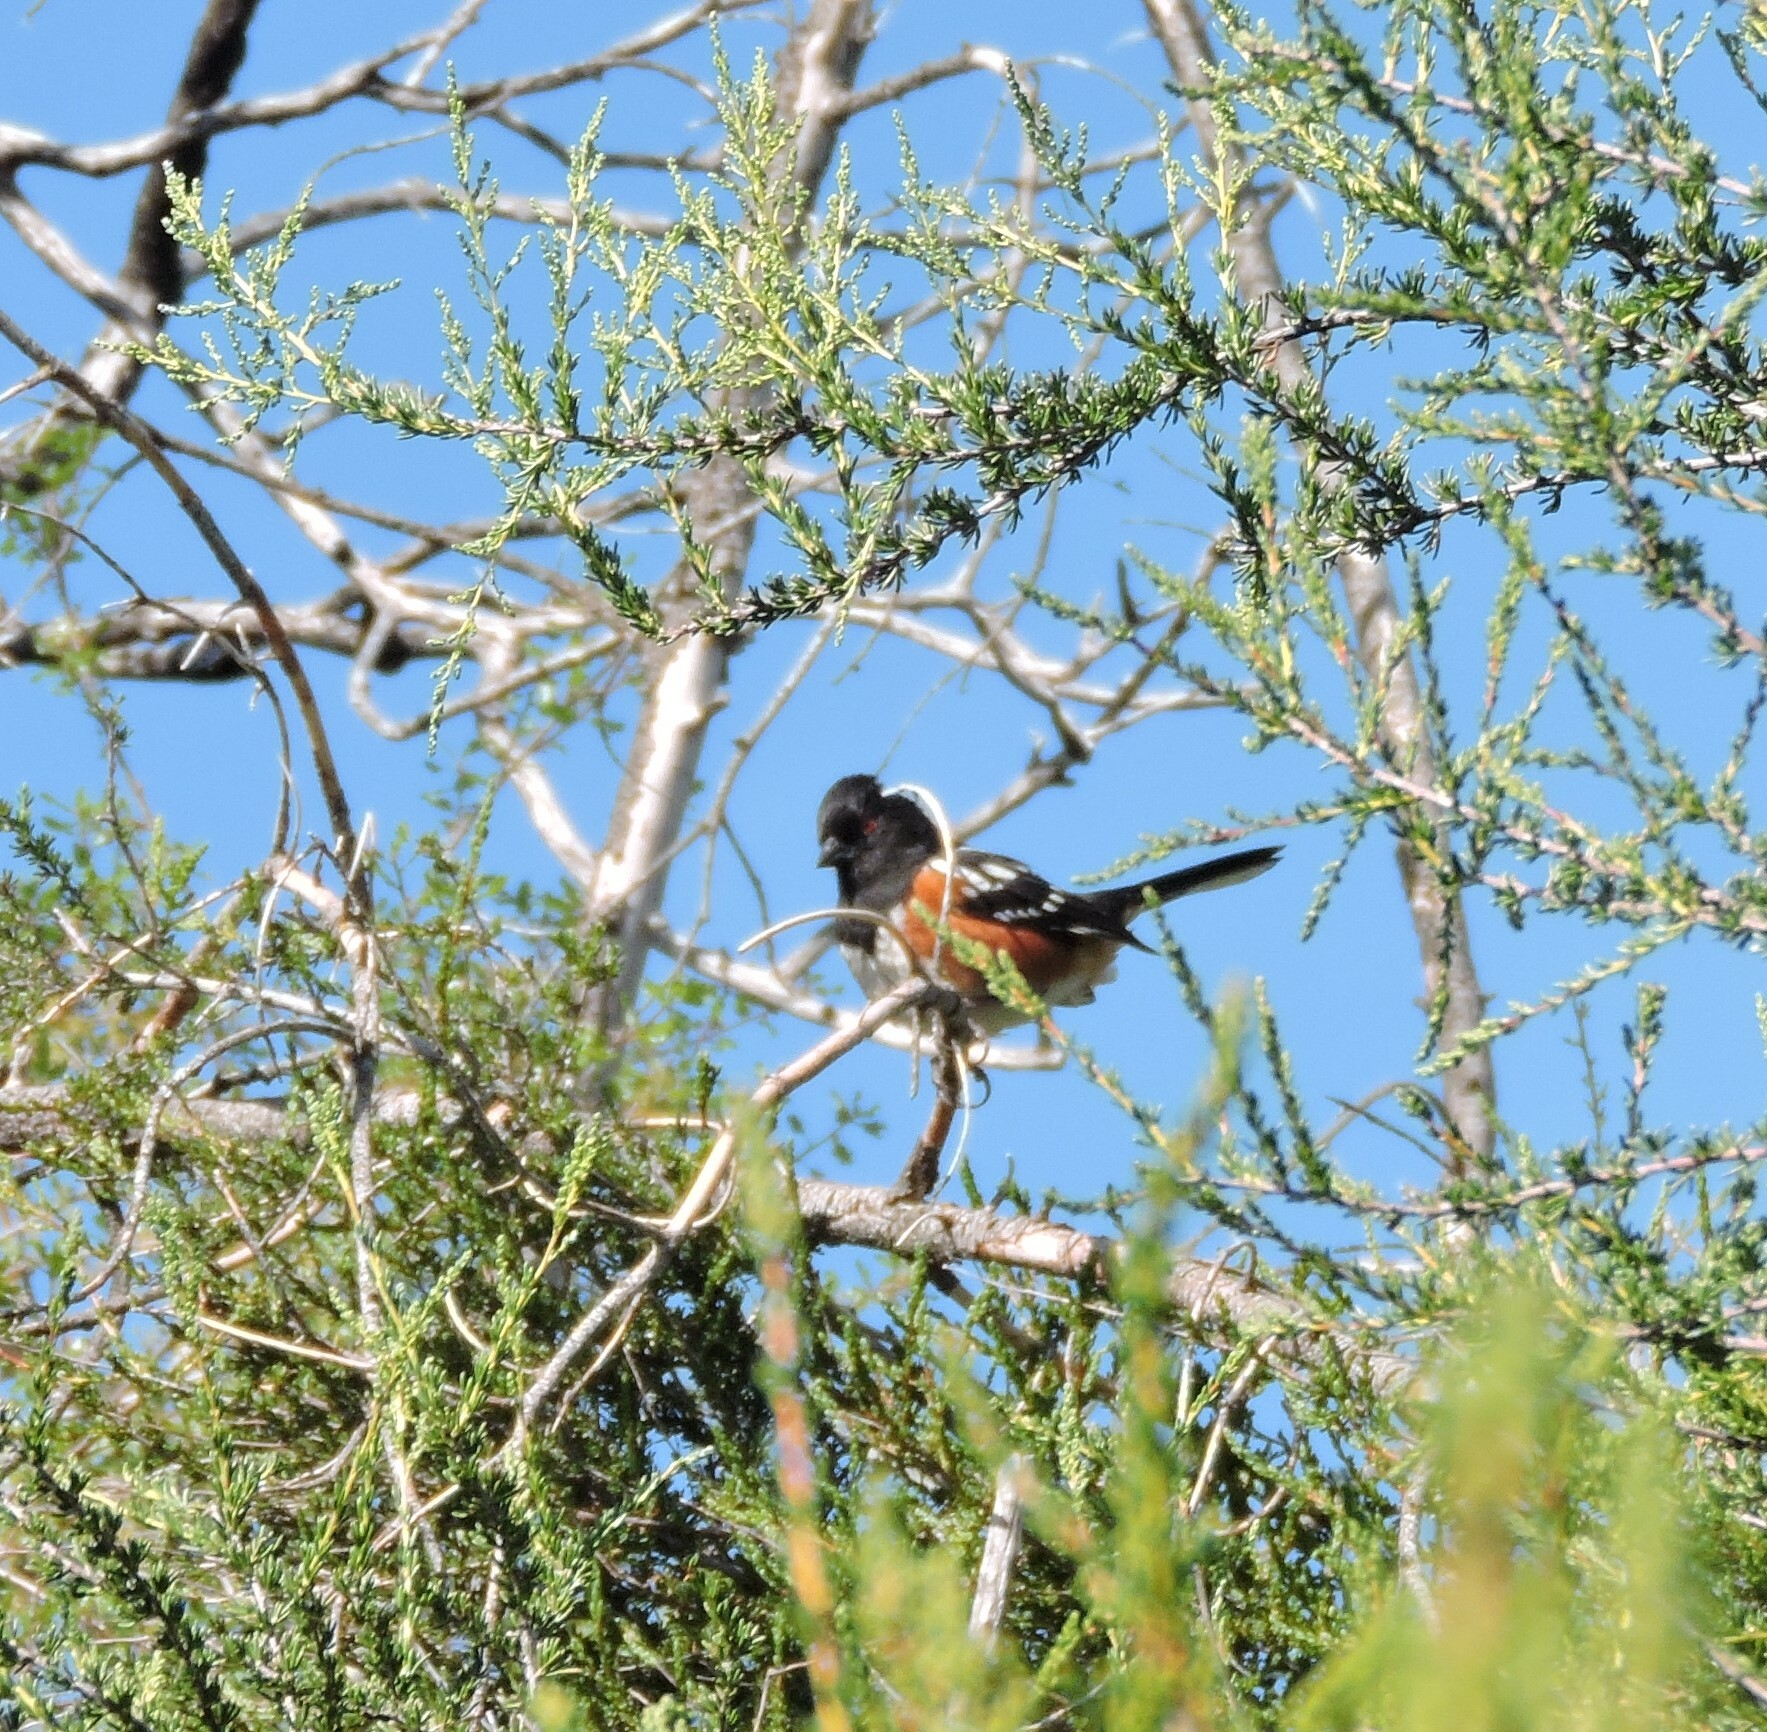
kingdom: Animalia
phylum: Chordata
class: Aves
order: Passeriformes
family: Passerellidae
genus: Pipilo
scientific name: Pipilo maculatus
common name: Spotted towhee
